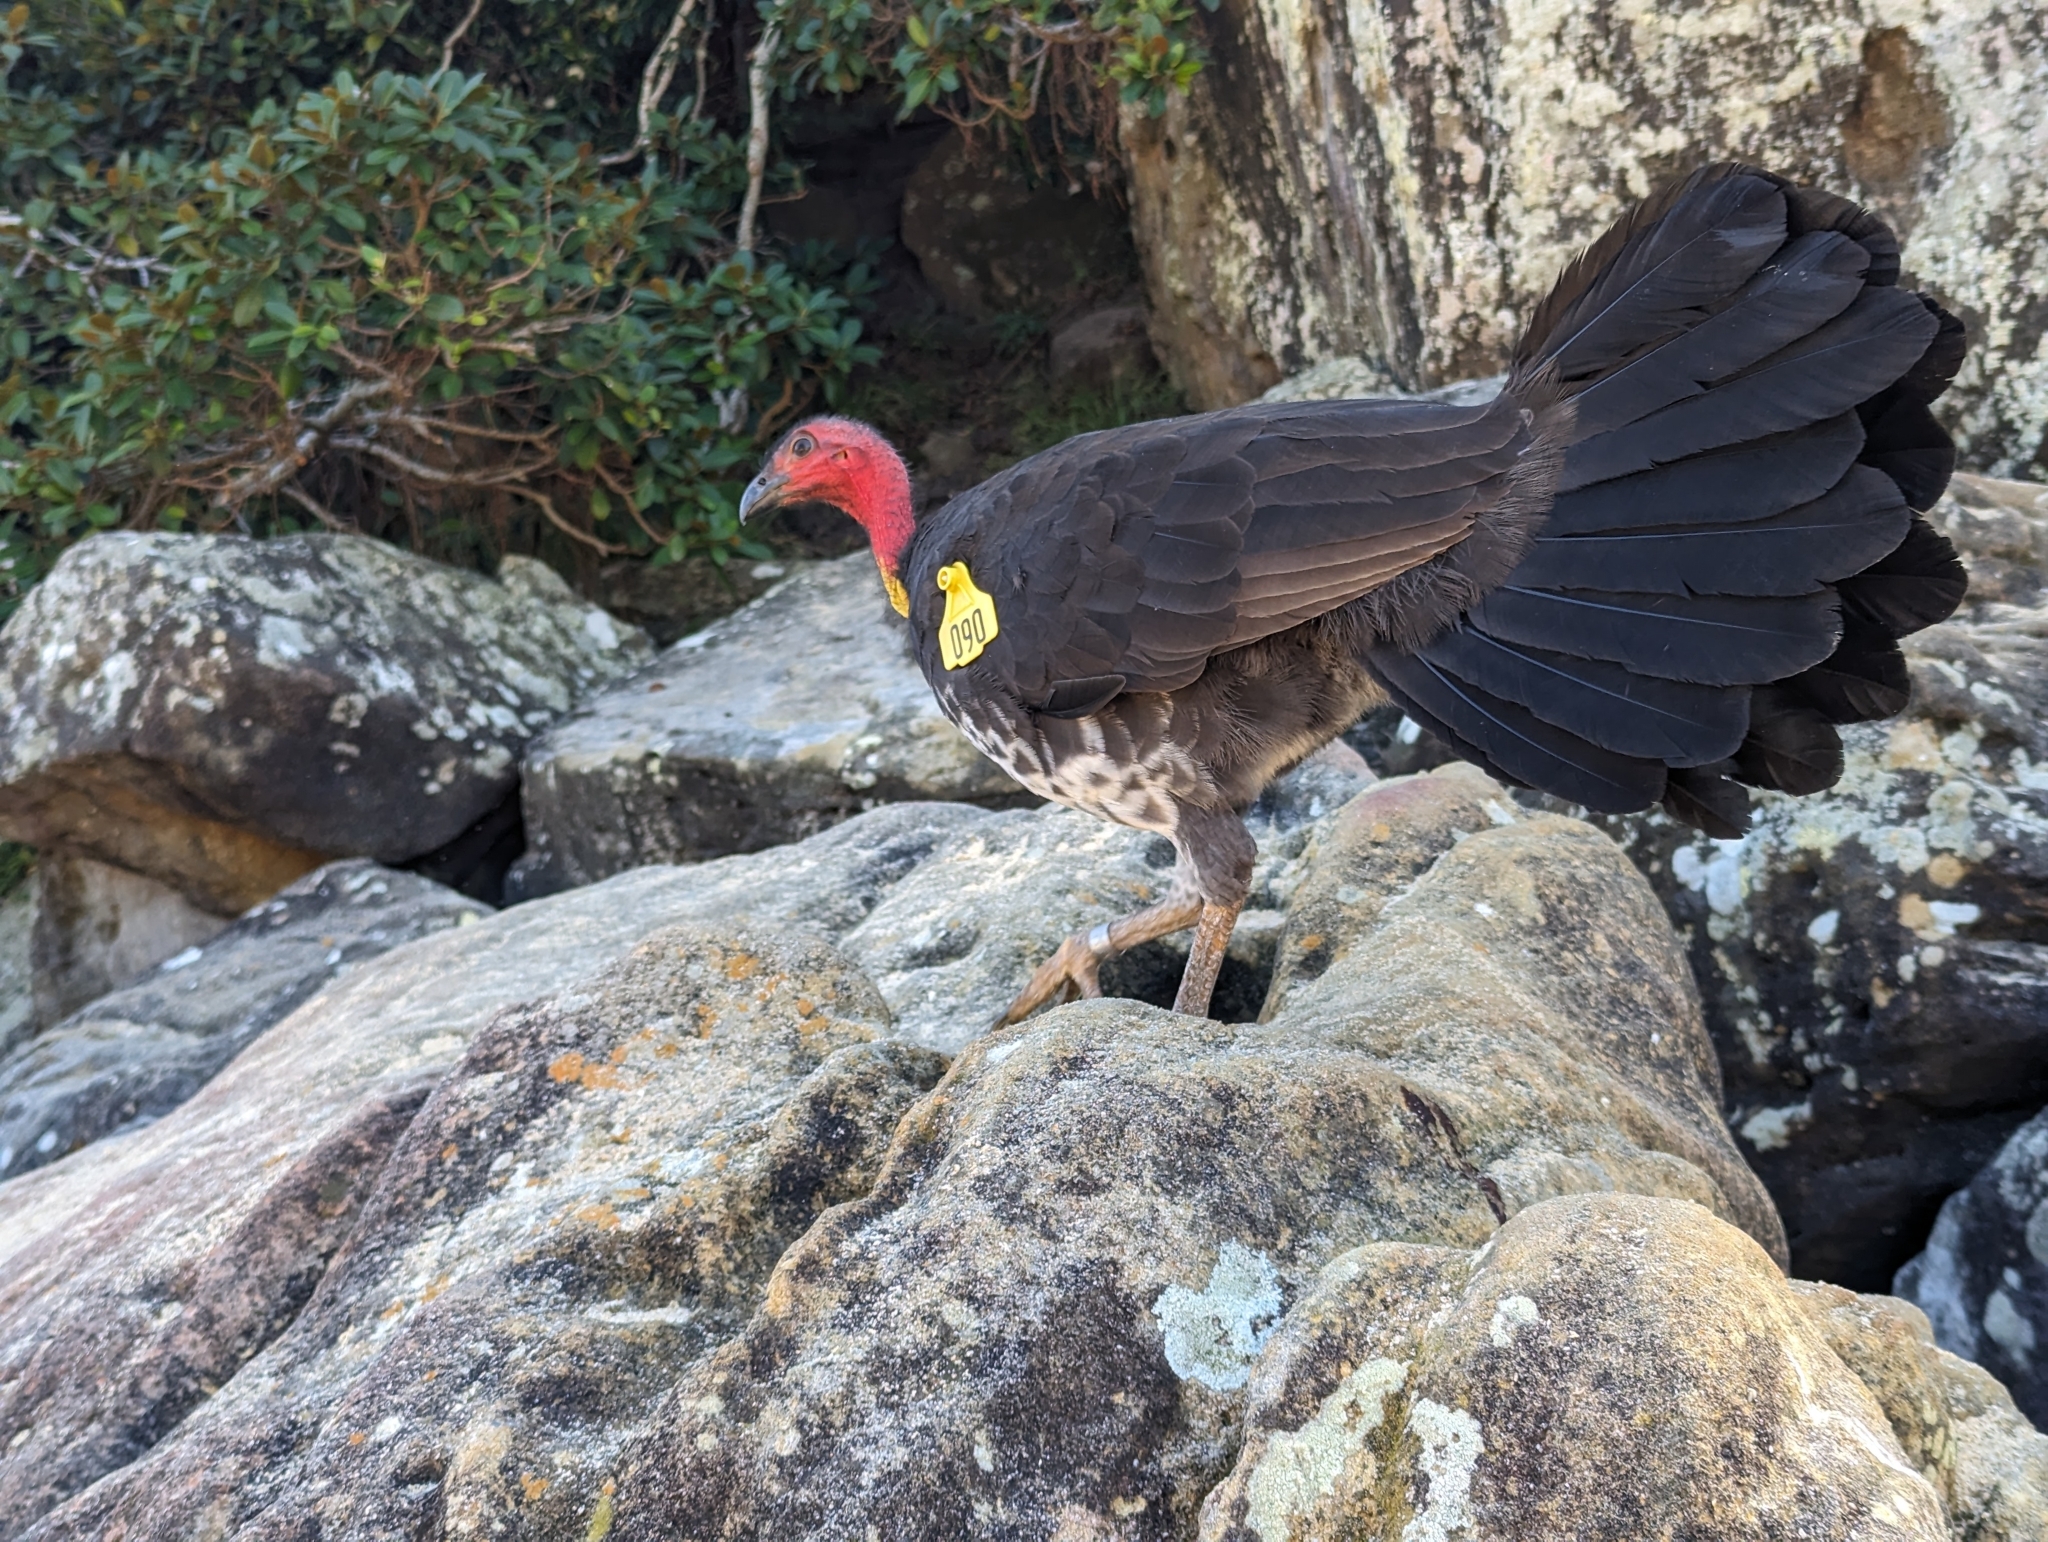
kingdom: Animalia
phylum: Chordata
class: Aves
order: Galliformes
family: Megapodiidae
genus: Alectura
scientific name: Alectura lathami
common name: Australian brushturkey
